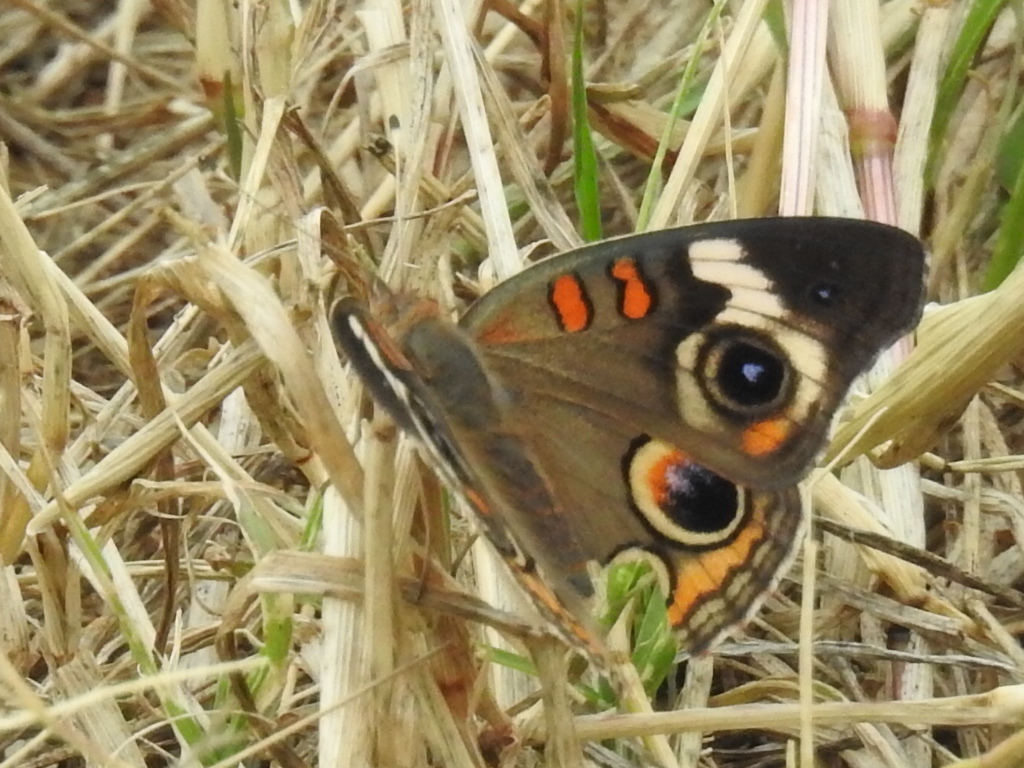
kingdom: Animalia
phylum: Arthropoda
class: Insecta
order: Lepidoptera
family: Nymphalidae
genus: Junonia
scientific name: Junonia coenia
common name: Common buckeye
